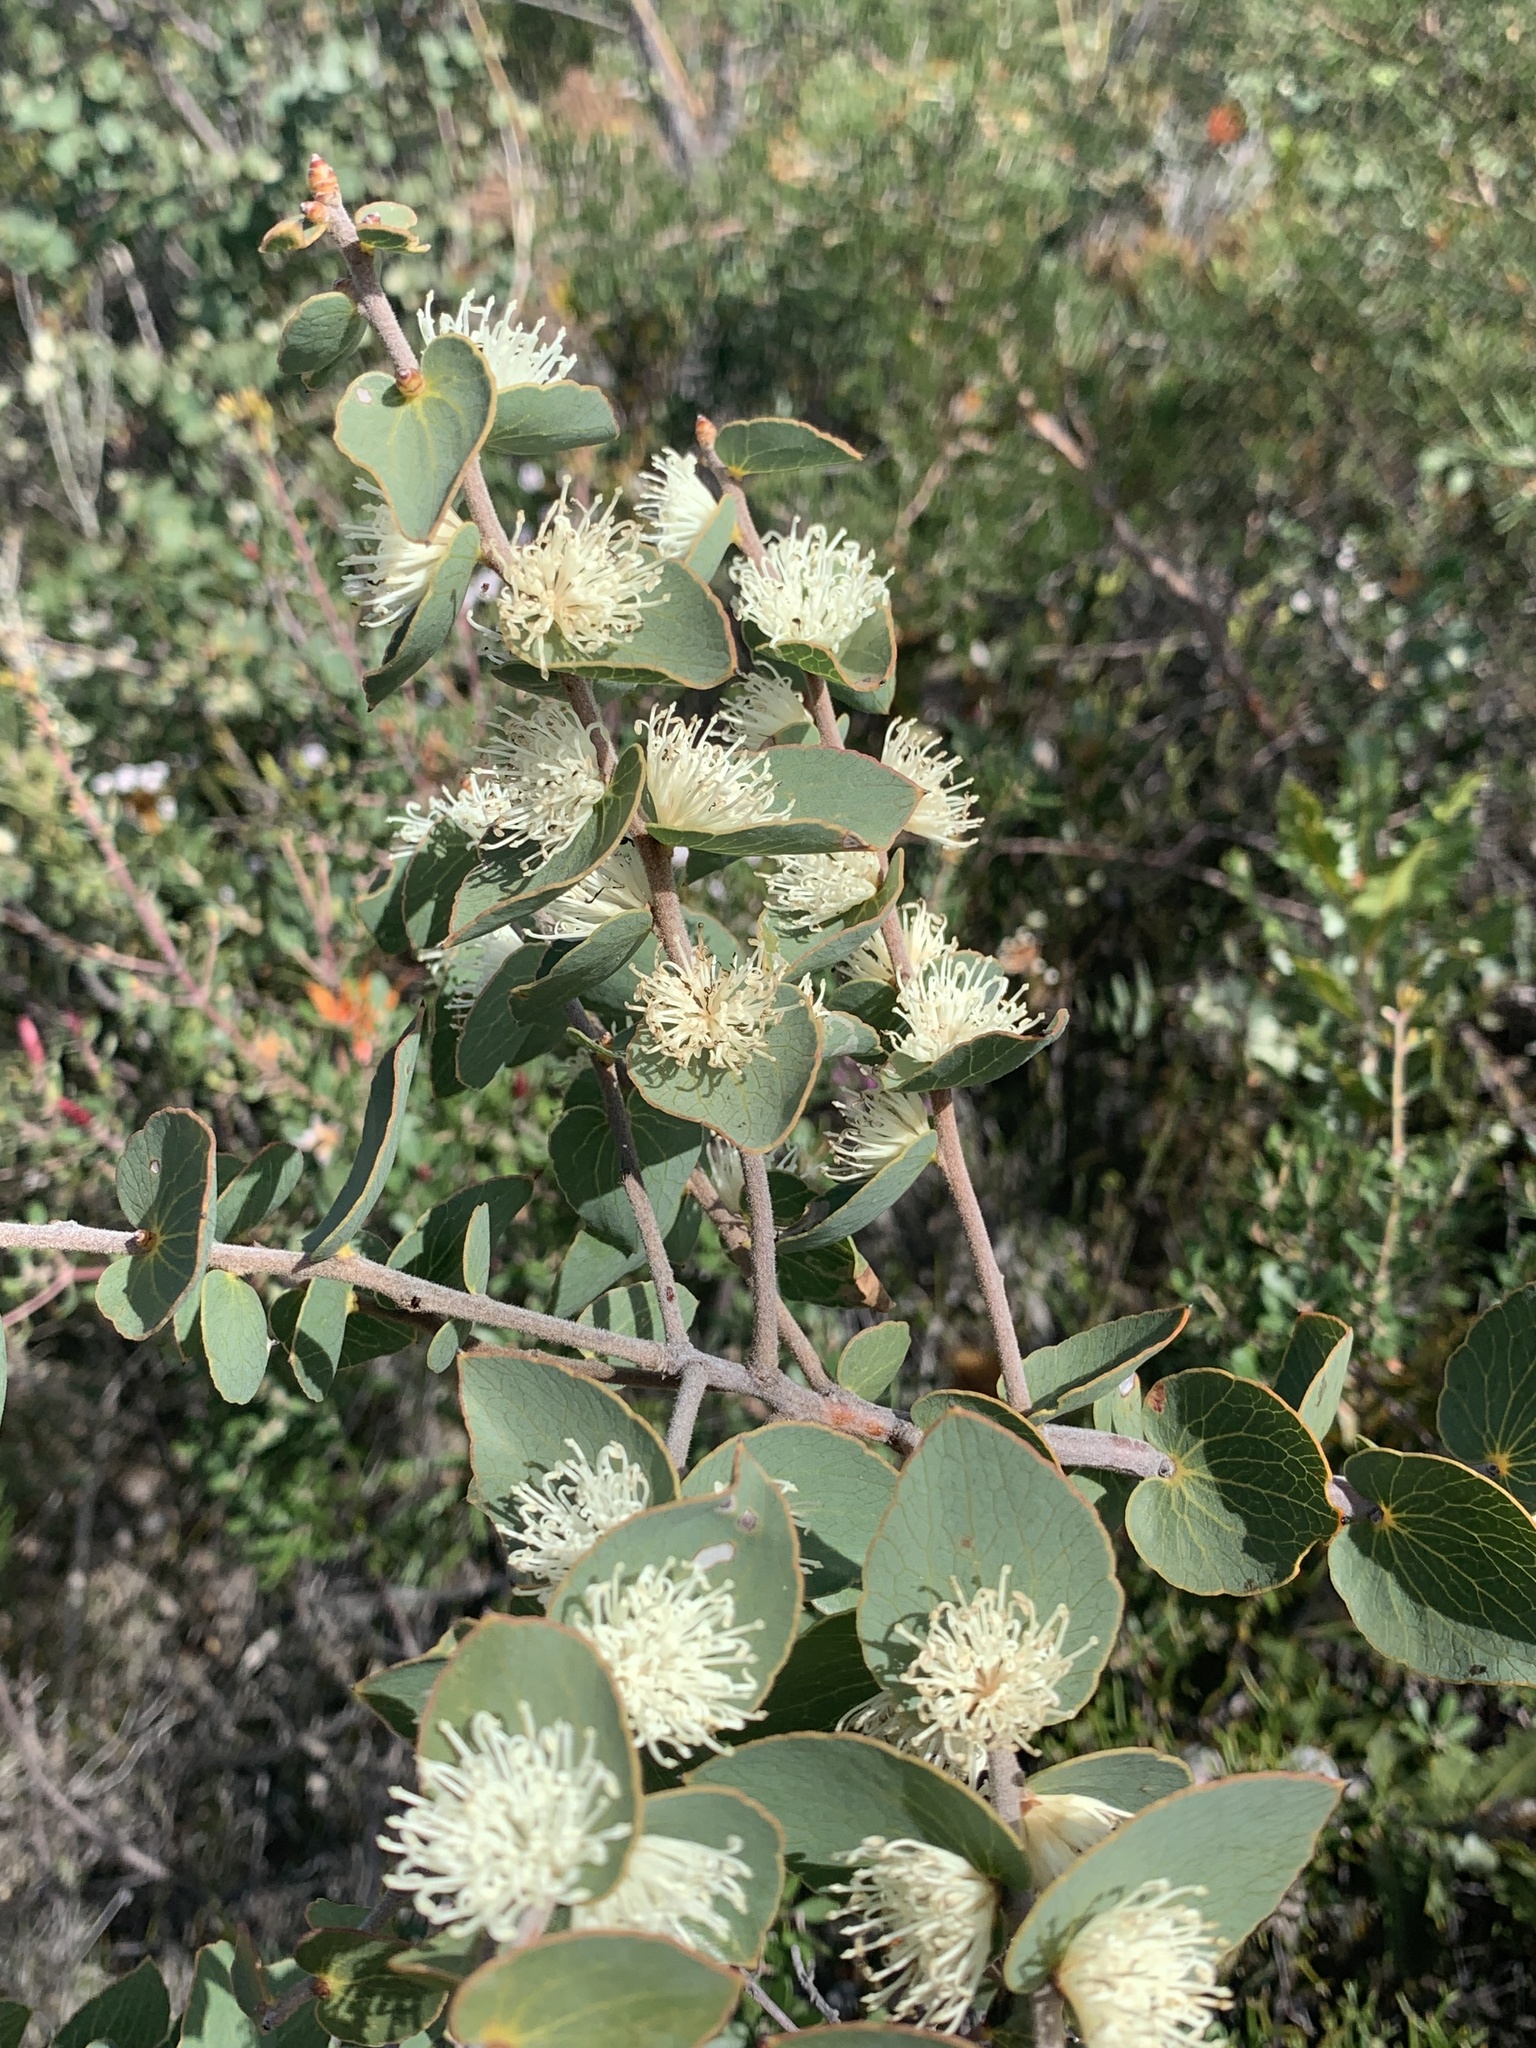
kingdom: Plantae
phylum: Tracheophyta
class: Magnoliopsida
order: Proteales
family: Proteaceae
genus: Hakea
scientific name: Hakea ferruginea
